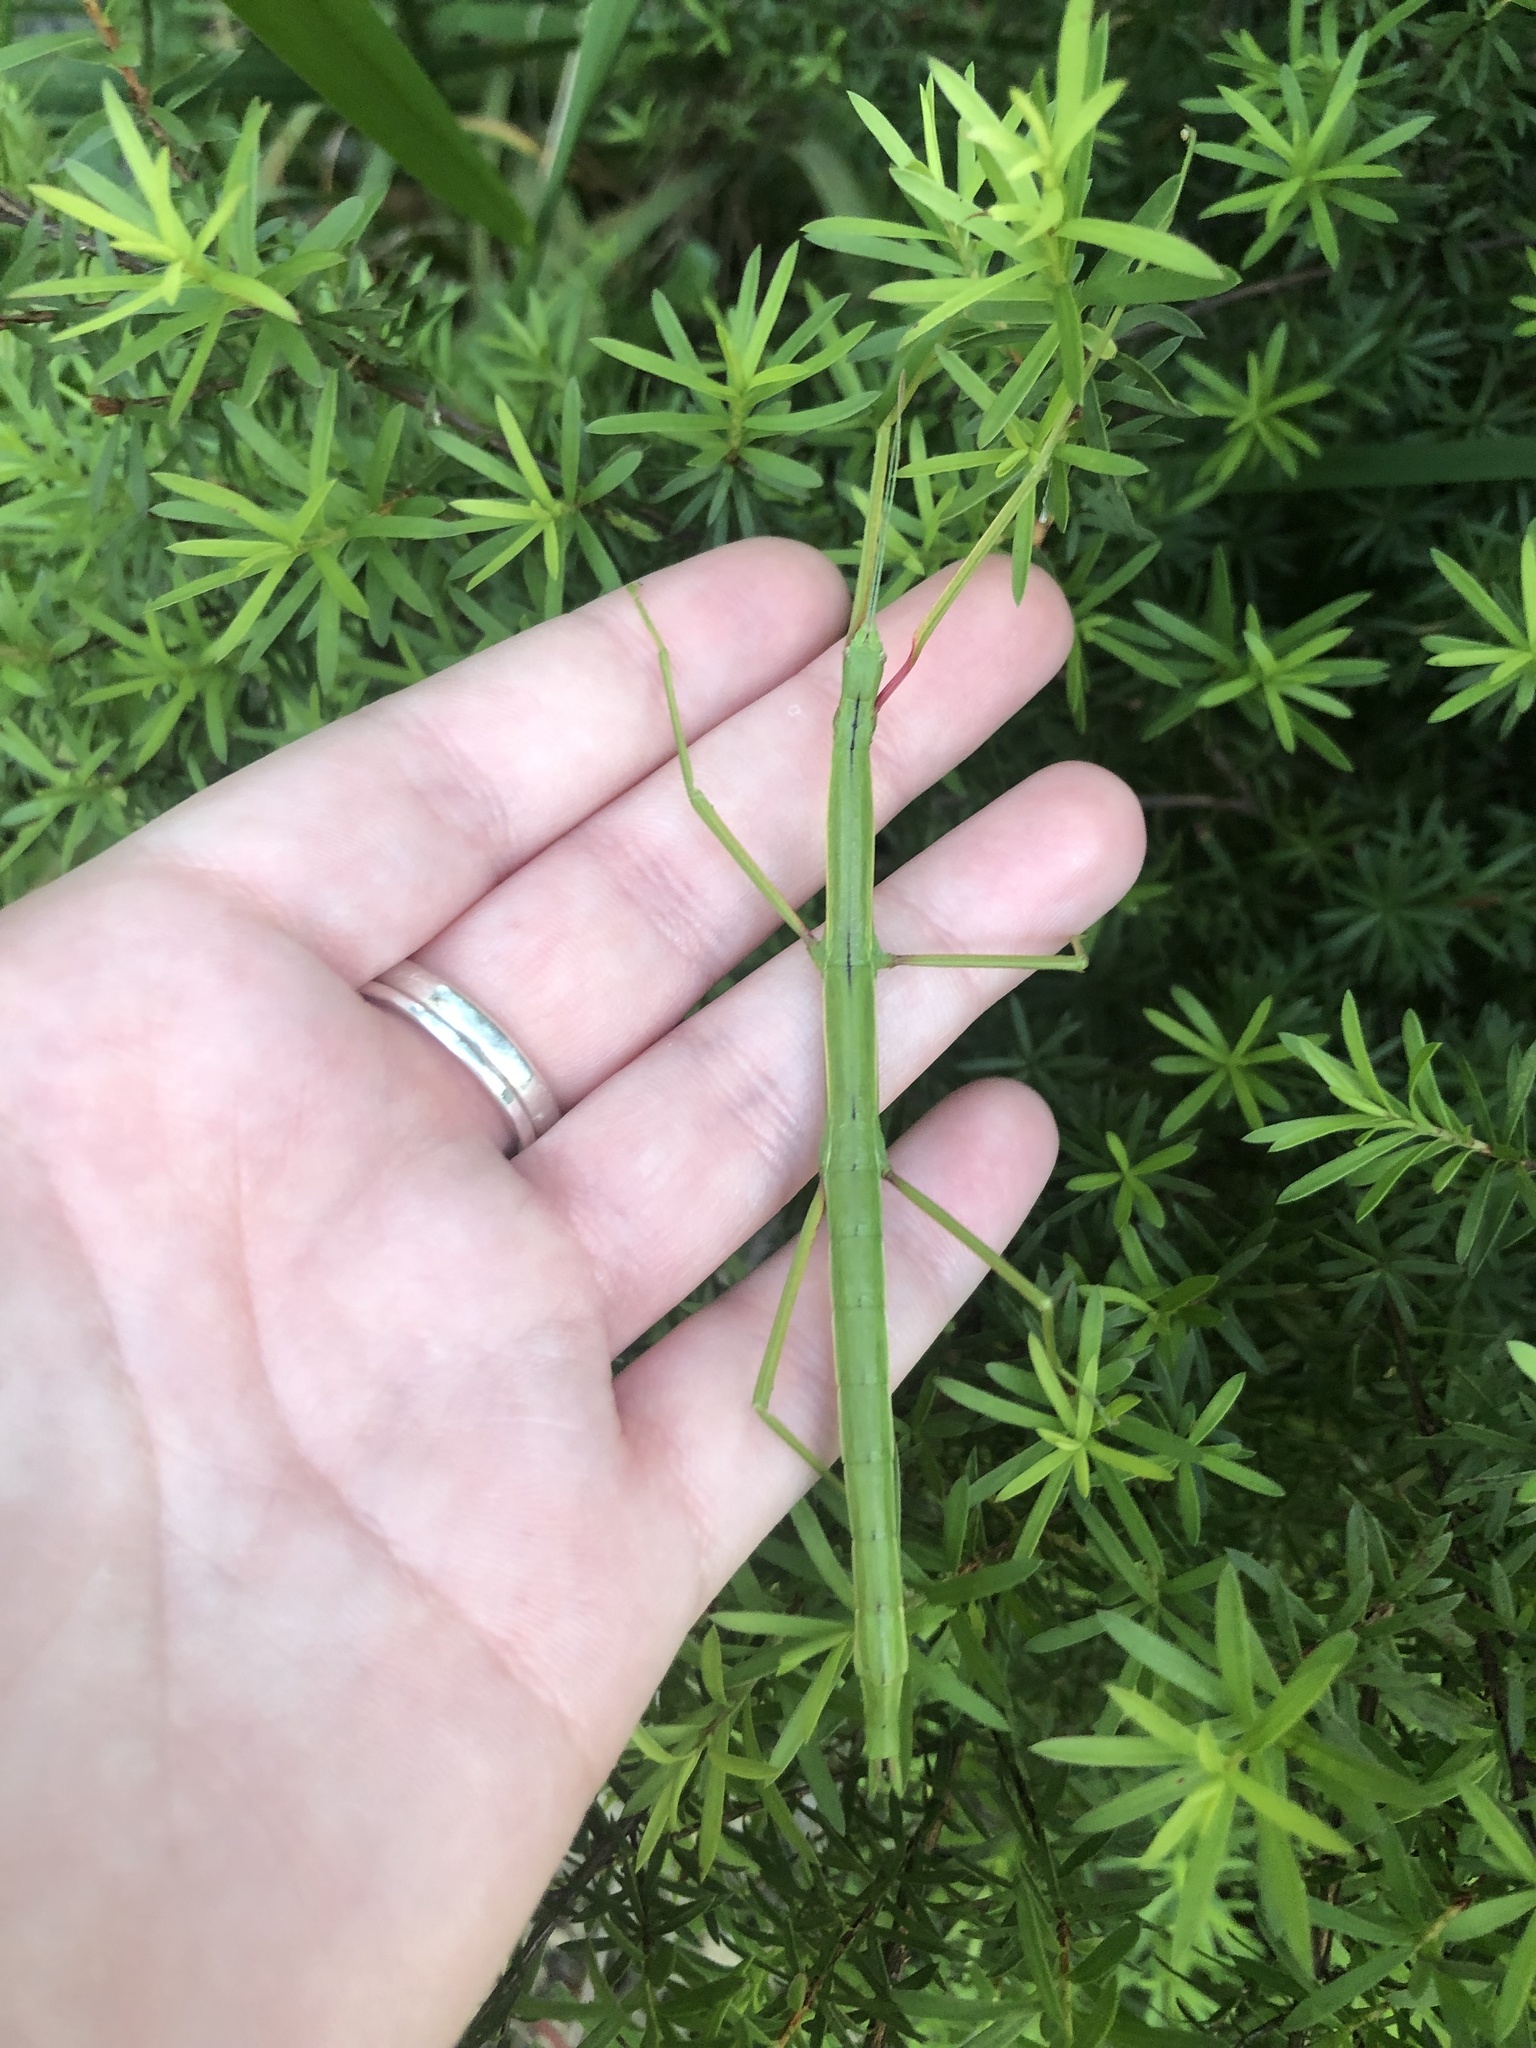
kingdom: Animalia
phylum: Arthropoda
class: Insecta
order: Phasmida
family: Phasmatidae
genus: Clitarchus
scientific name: Clitarchus hookeri
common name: Smooth stick insect
